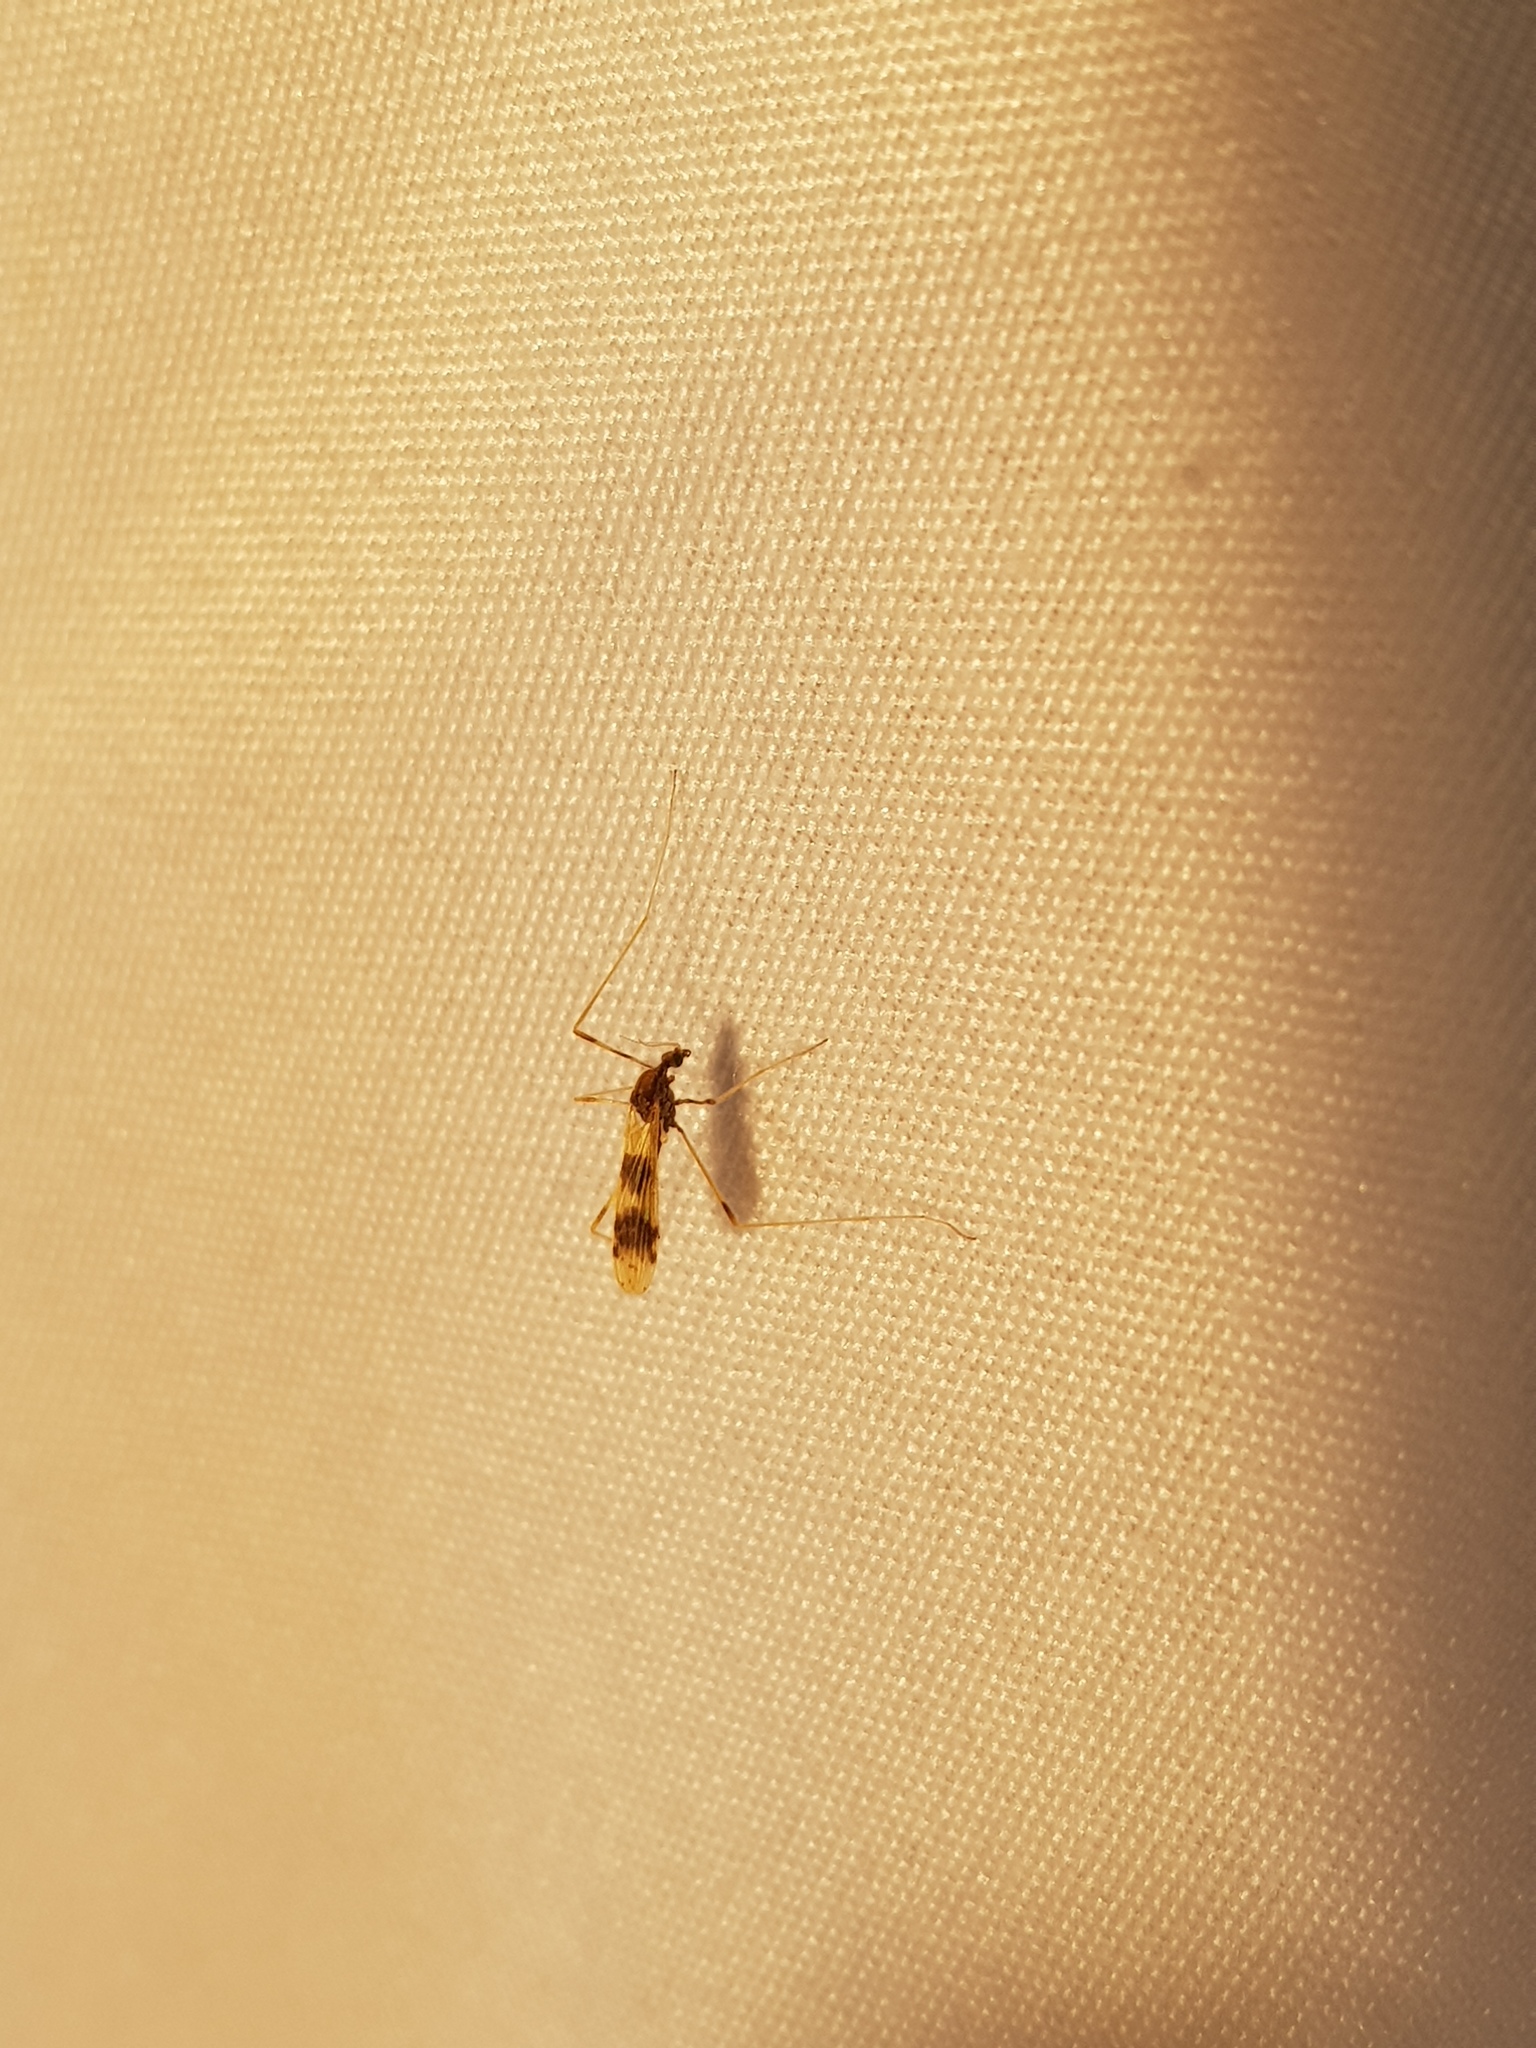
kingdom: Animalia
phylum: Arthropoda
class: Insecta
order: Diptera
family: Limoniidae
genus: Ilisia
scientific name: Ilisia venusta
